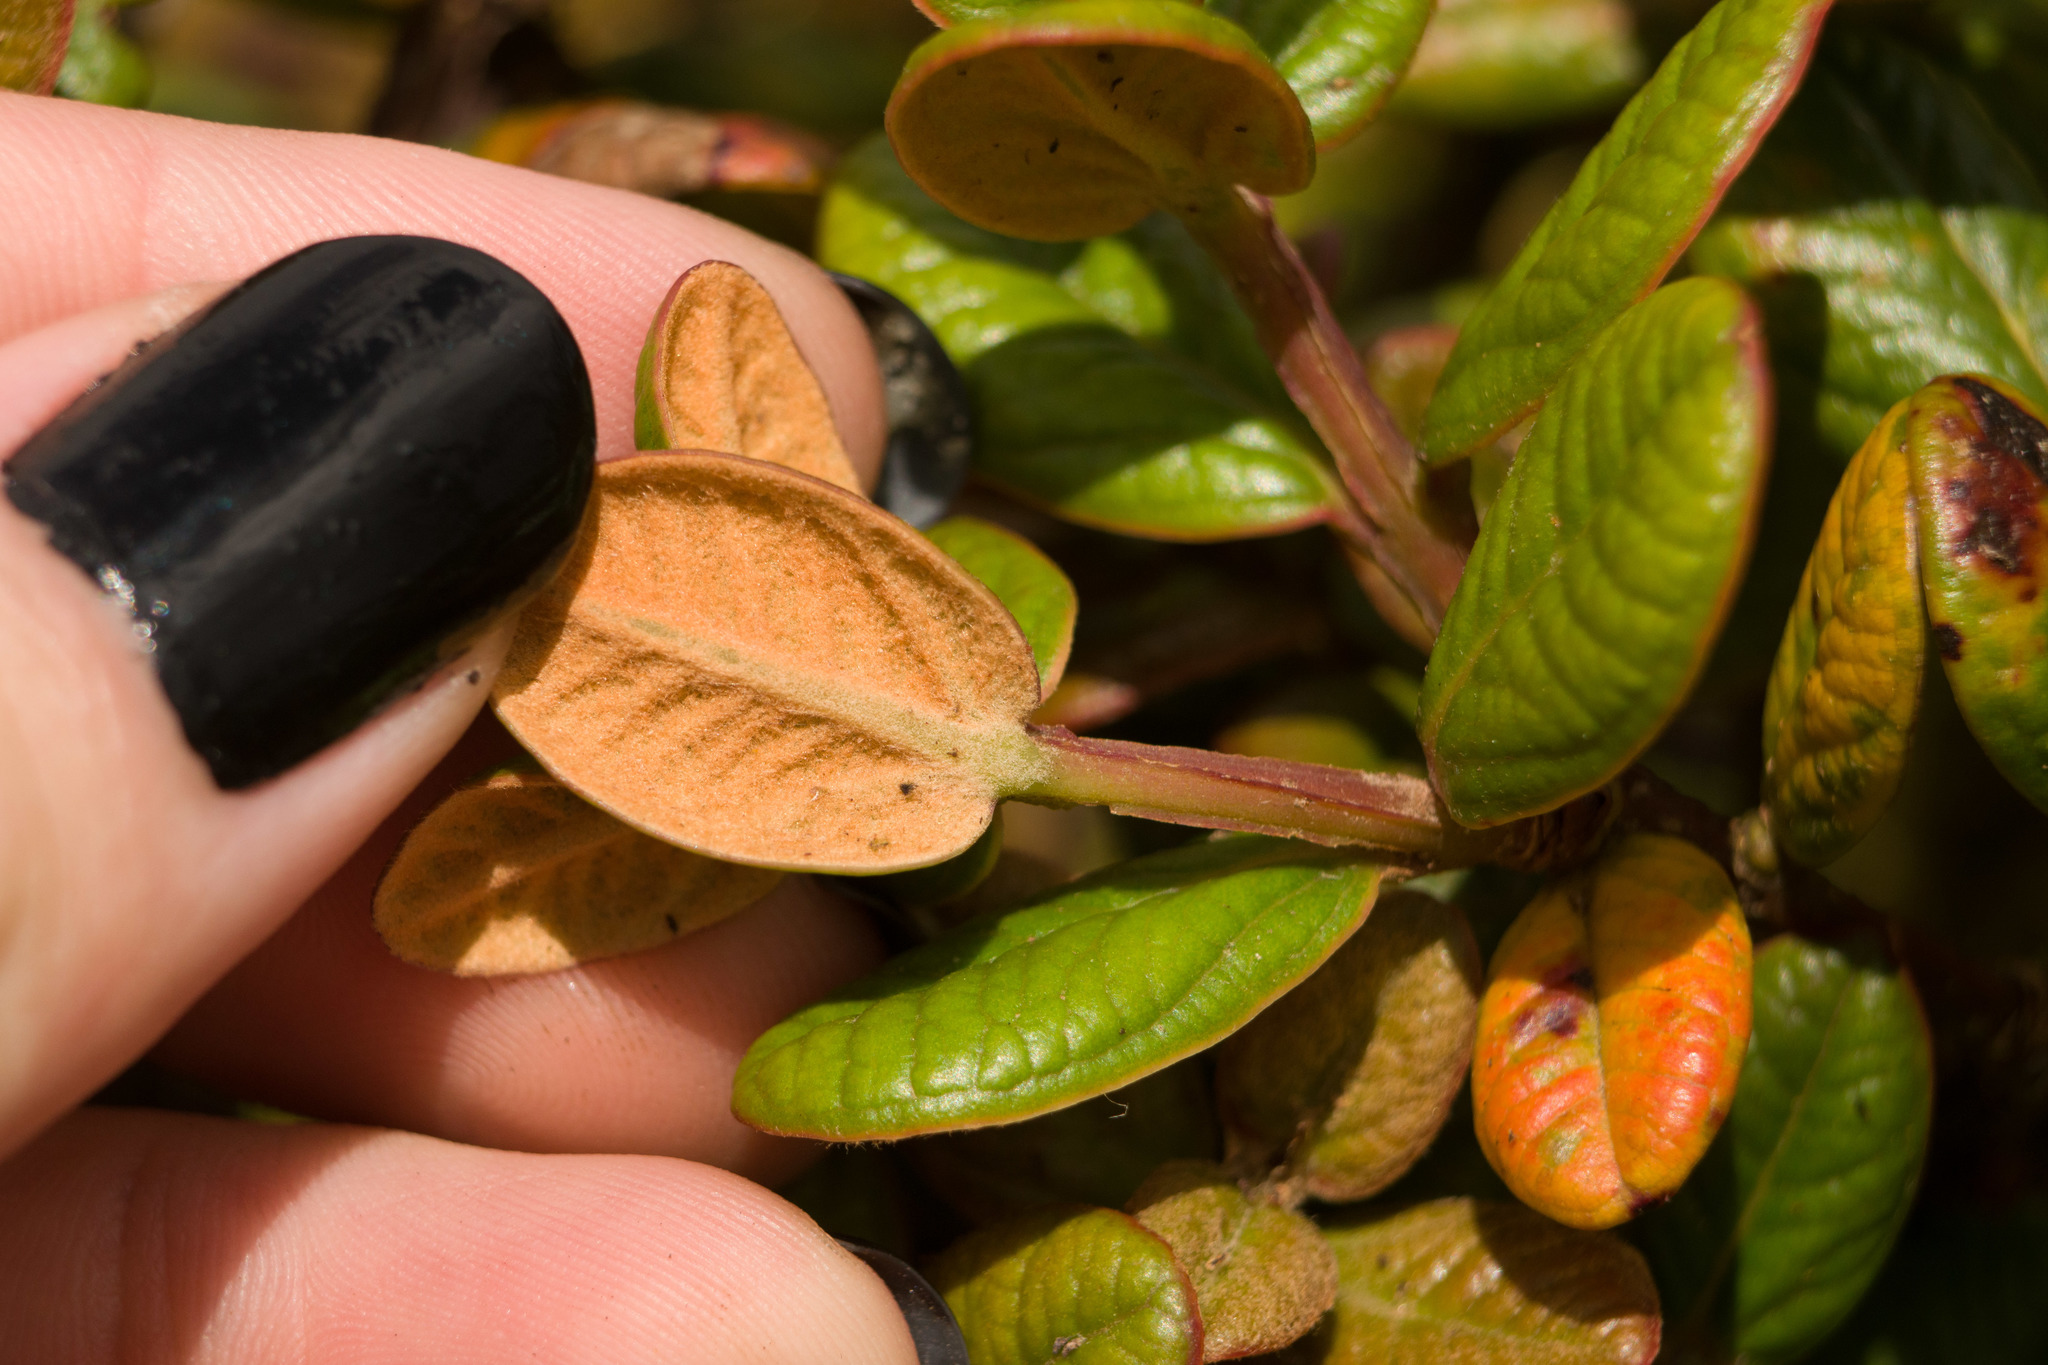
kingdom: Plantae
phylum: Tracheophyta
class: Magnoliopsida
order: Myrtales
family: Myrtaceae
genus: Metrosideros
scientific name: Metrosideros rugosa
